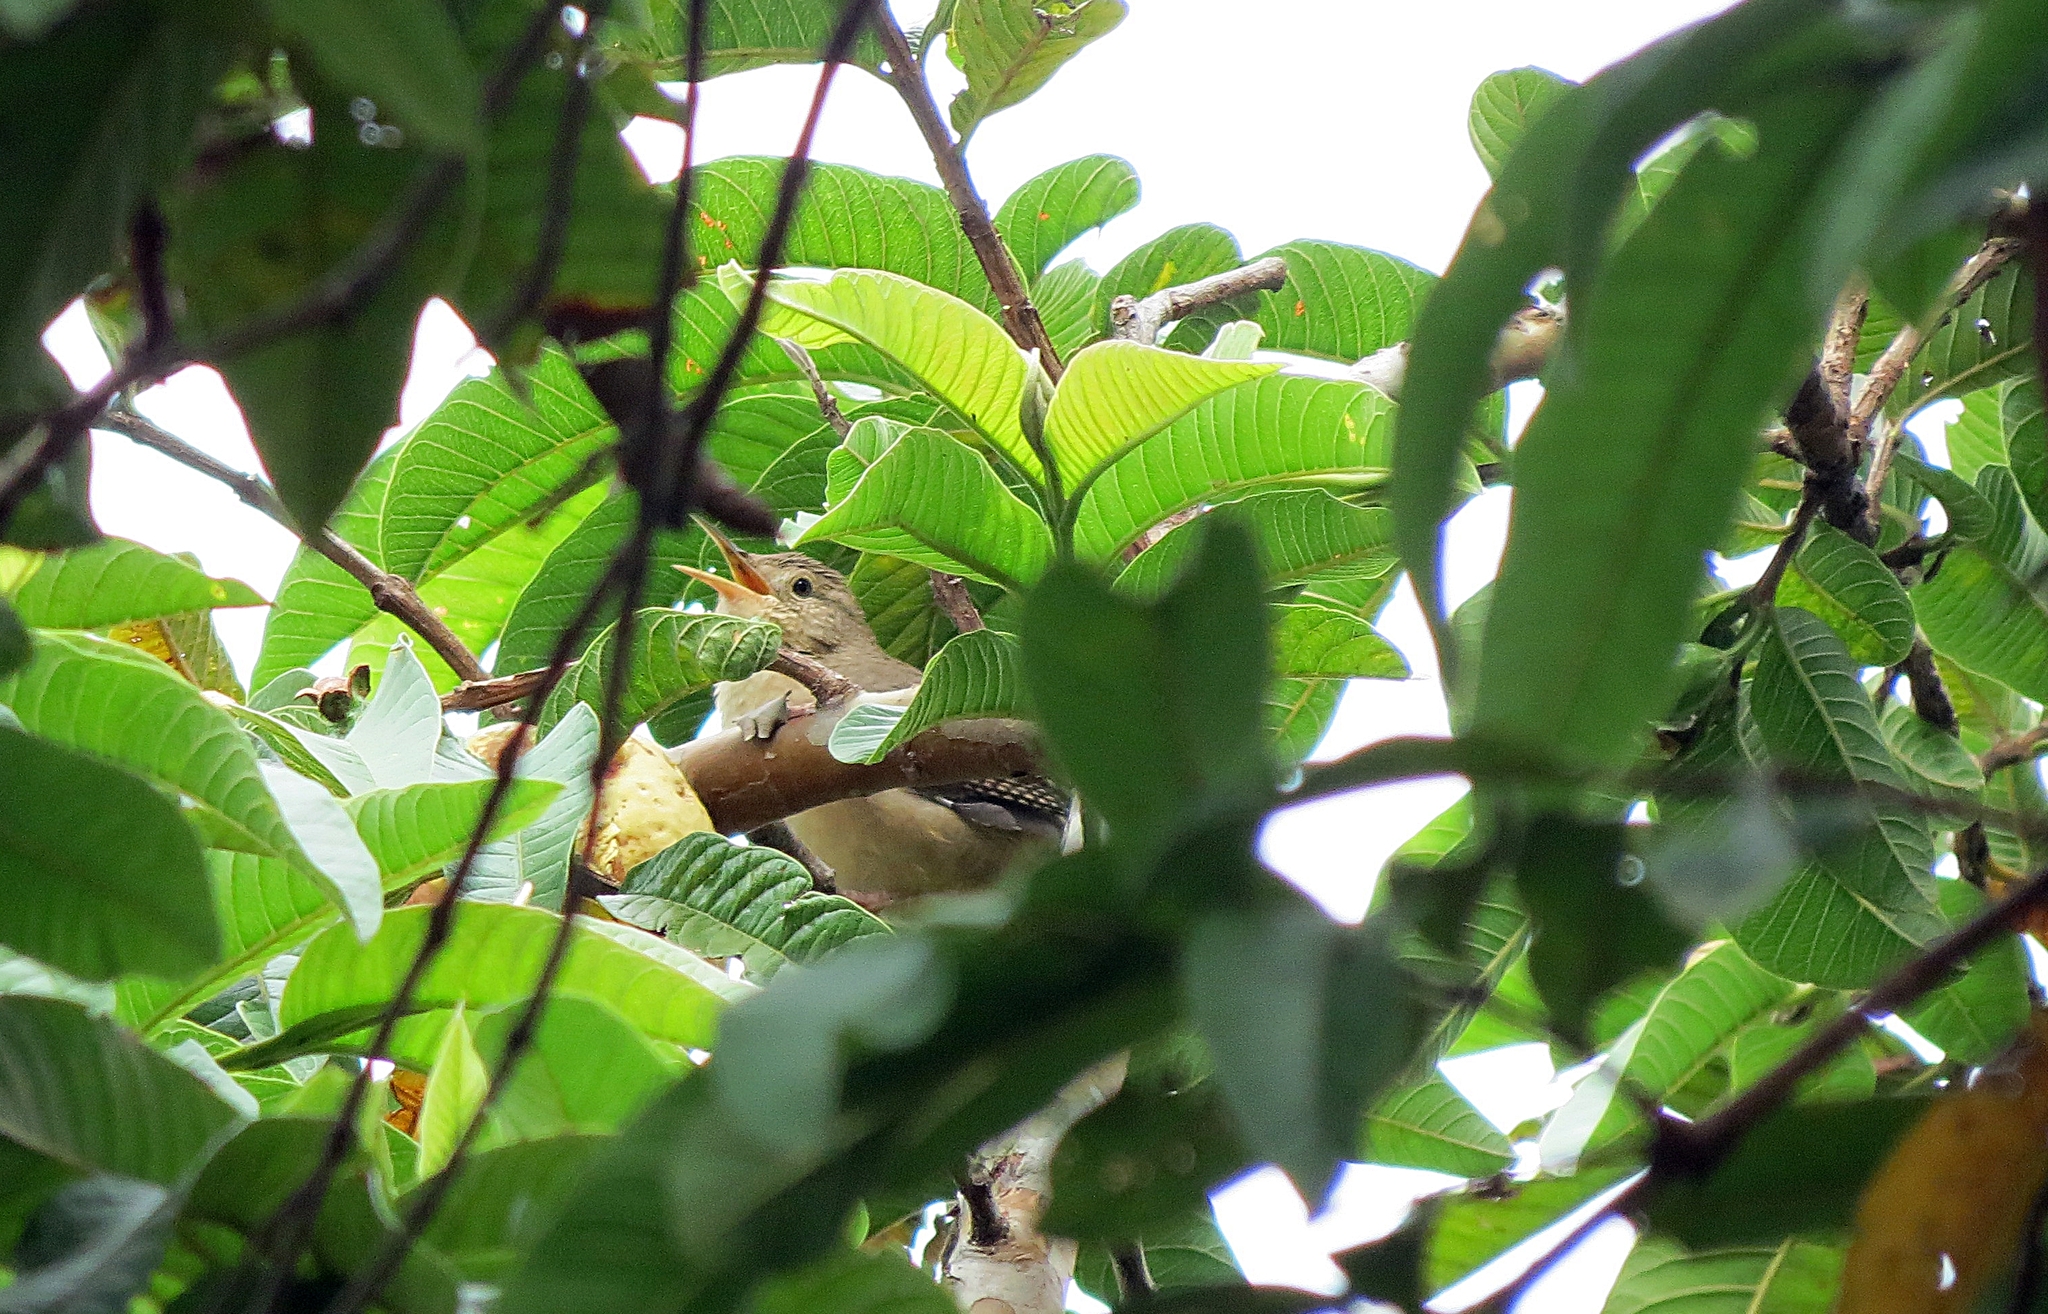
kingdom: Animalia
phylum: Chordata
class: Aves
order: Passeriformes
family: Troglodytidae
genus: Troglodytes
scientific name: Troglodytes aedon
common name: House wren
